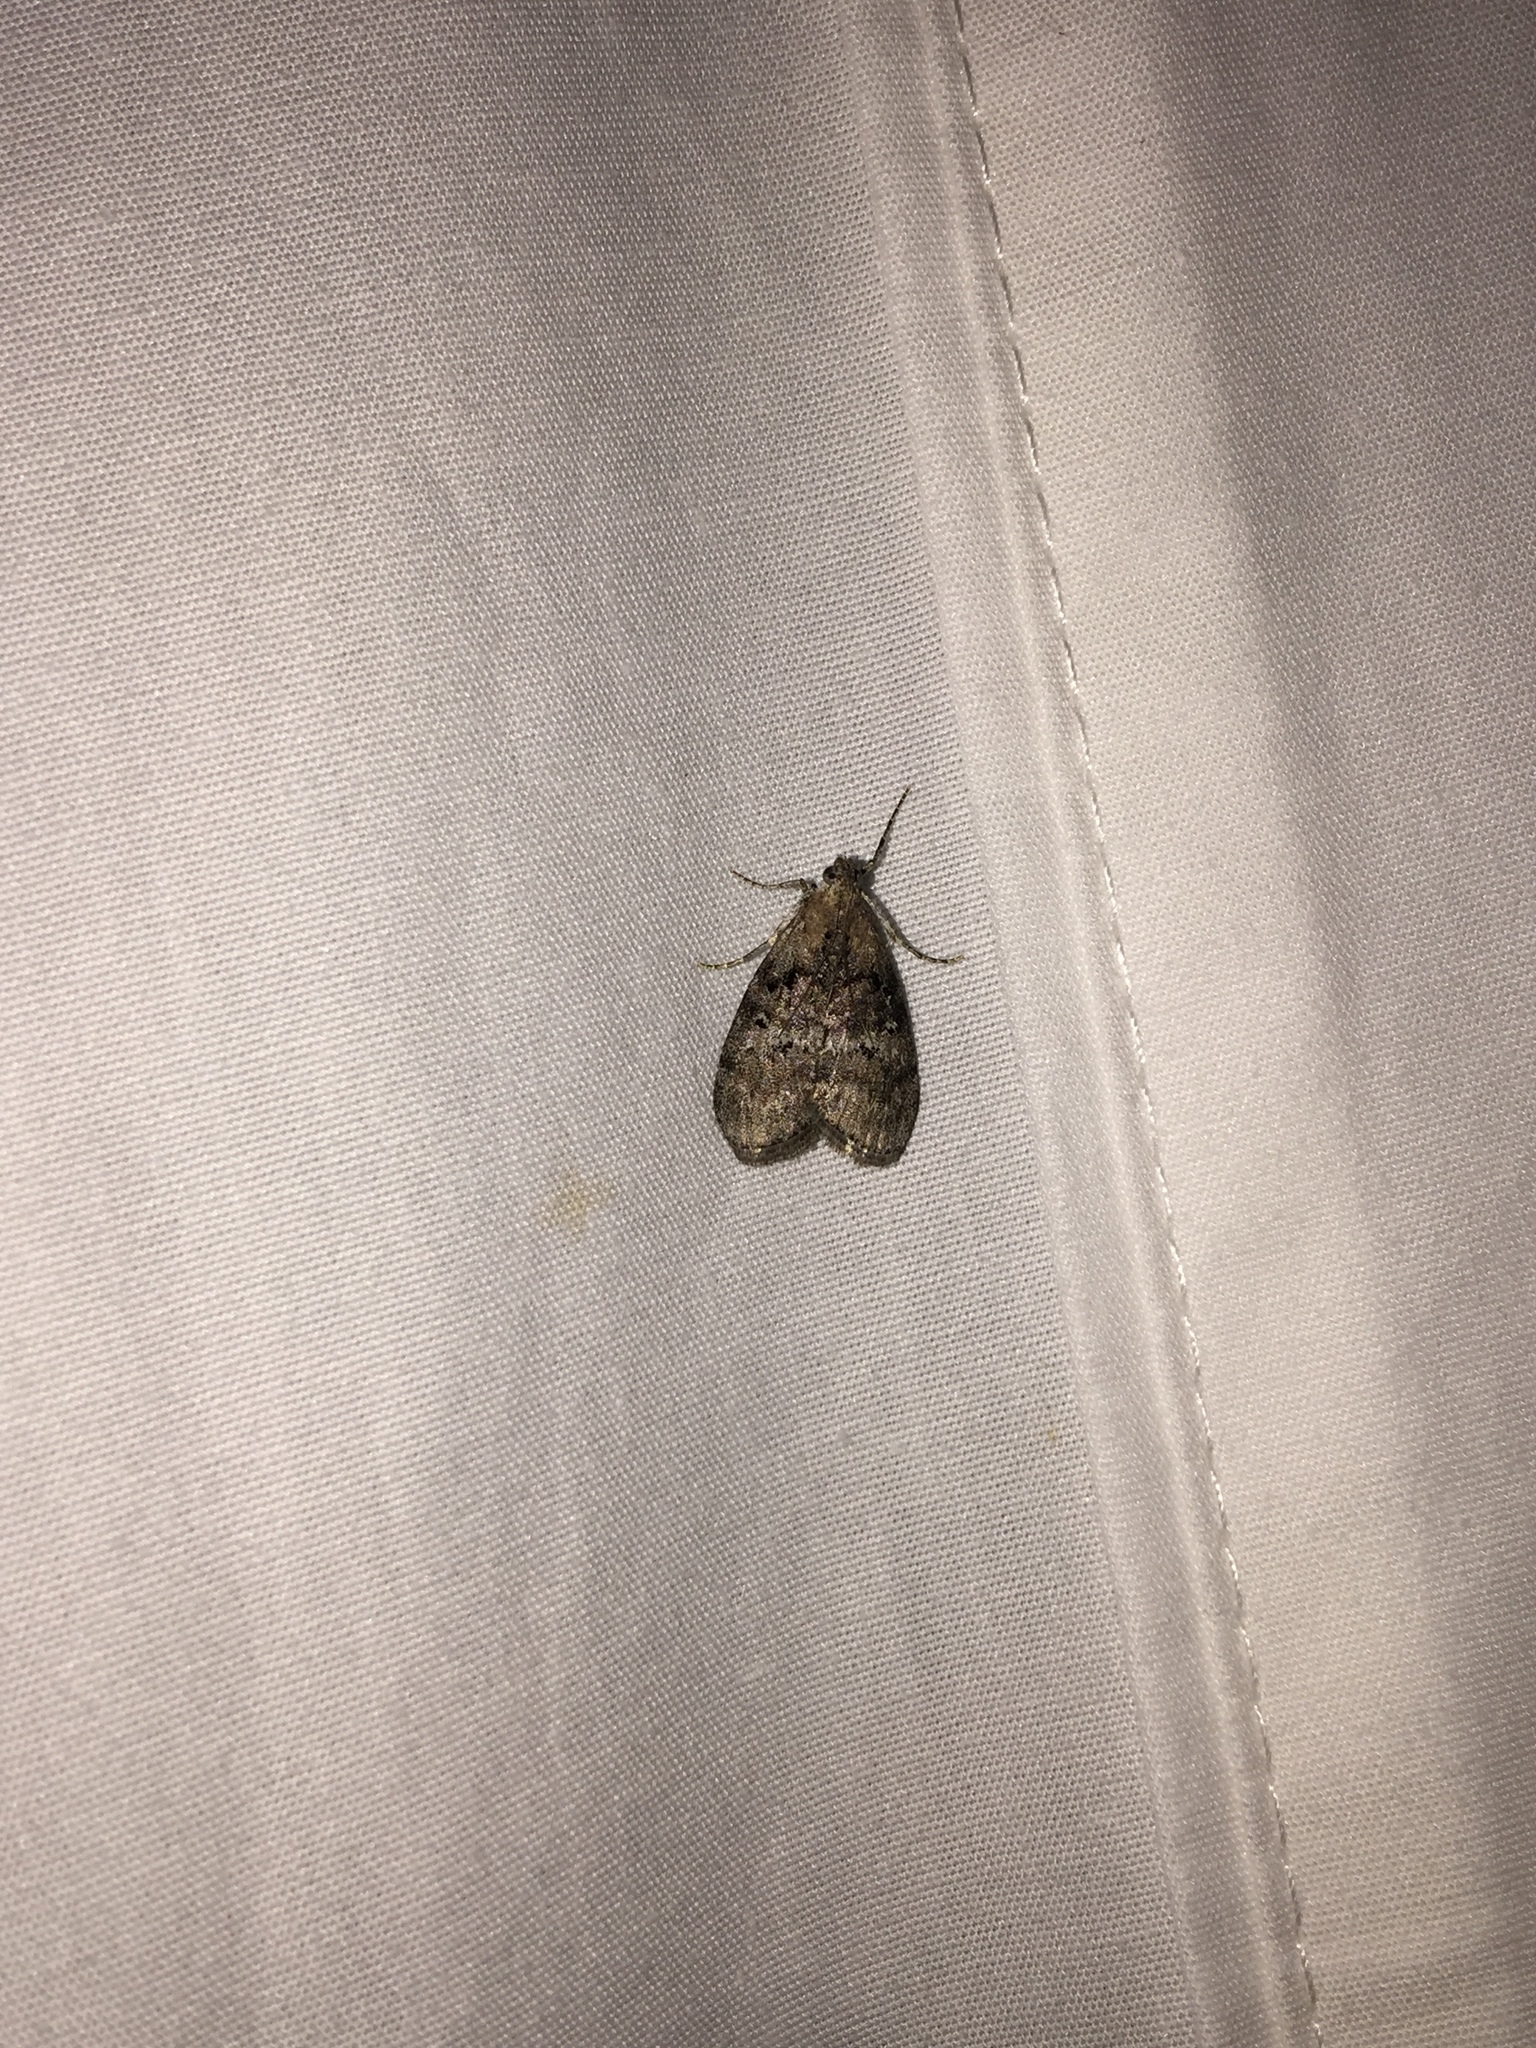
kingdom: Animalia
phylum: Arthropoda
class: Insecta
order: Lepidoptera
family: Pyralidae
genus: Pococera
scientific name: Pococera asperatella
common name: Maple webworm moth
